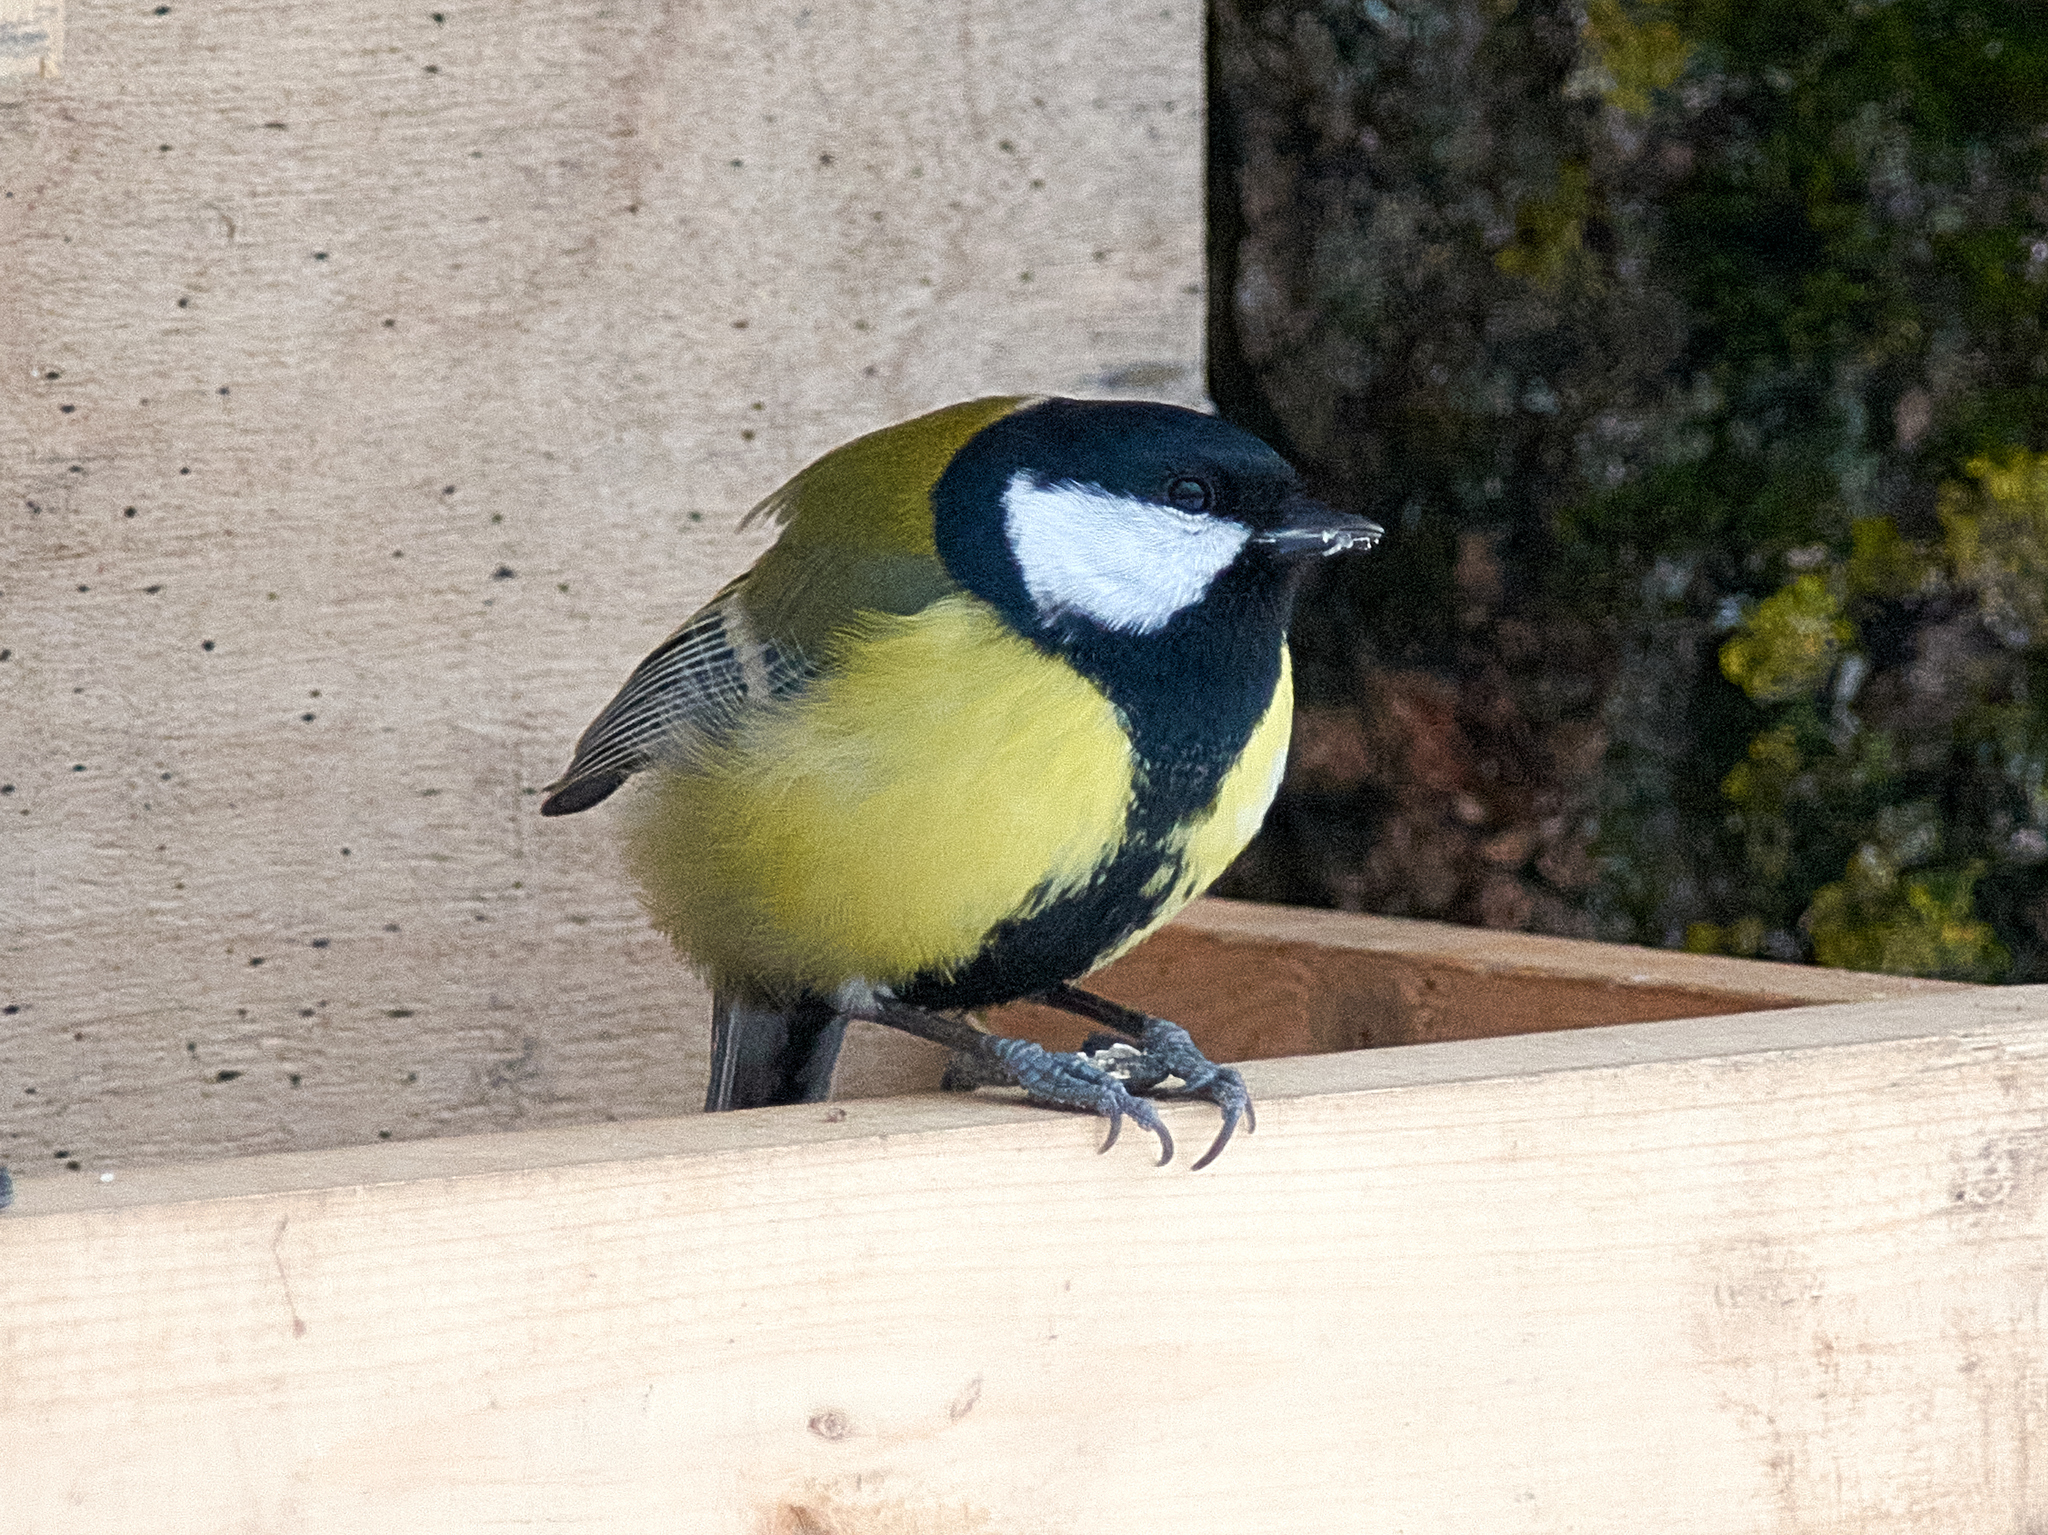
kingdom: Animalia
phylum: Chordata
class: Aves
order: Passeriformes
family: Paridae
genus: Parus
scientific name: Parus major
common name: Great tit
